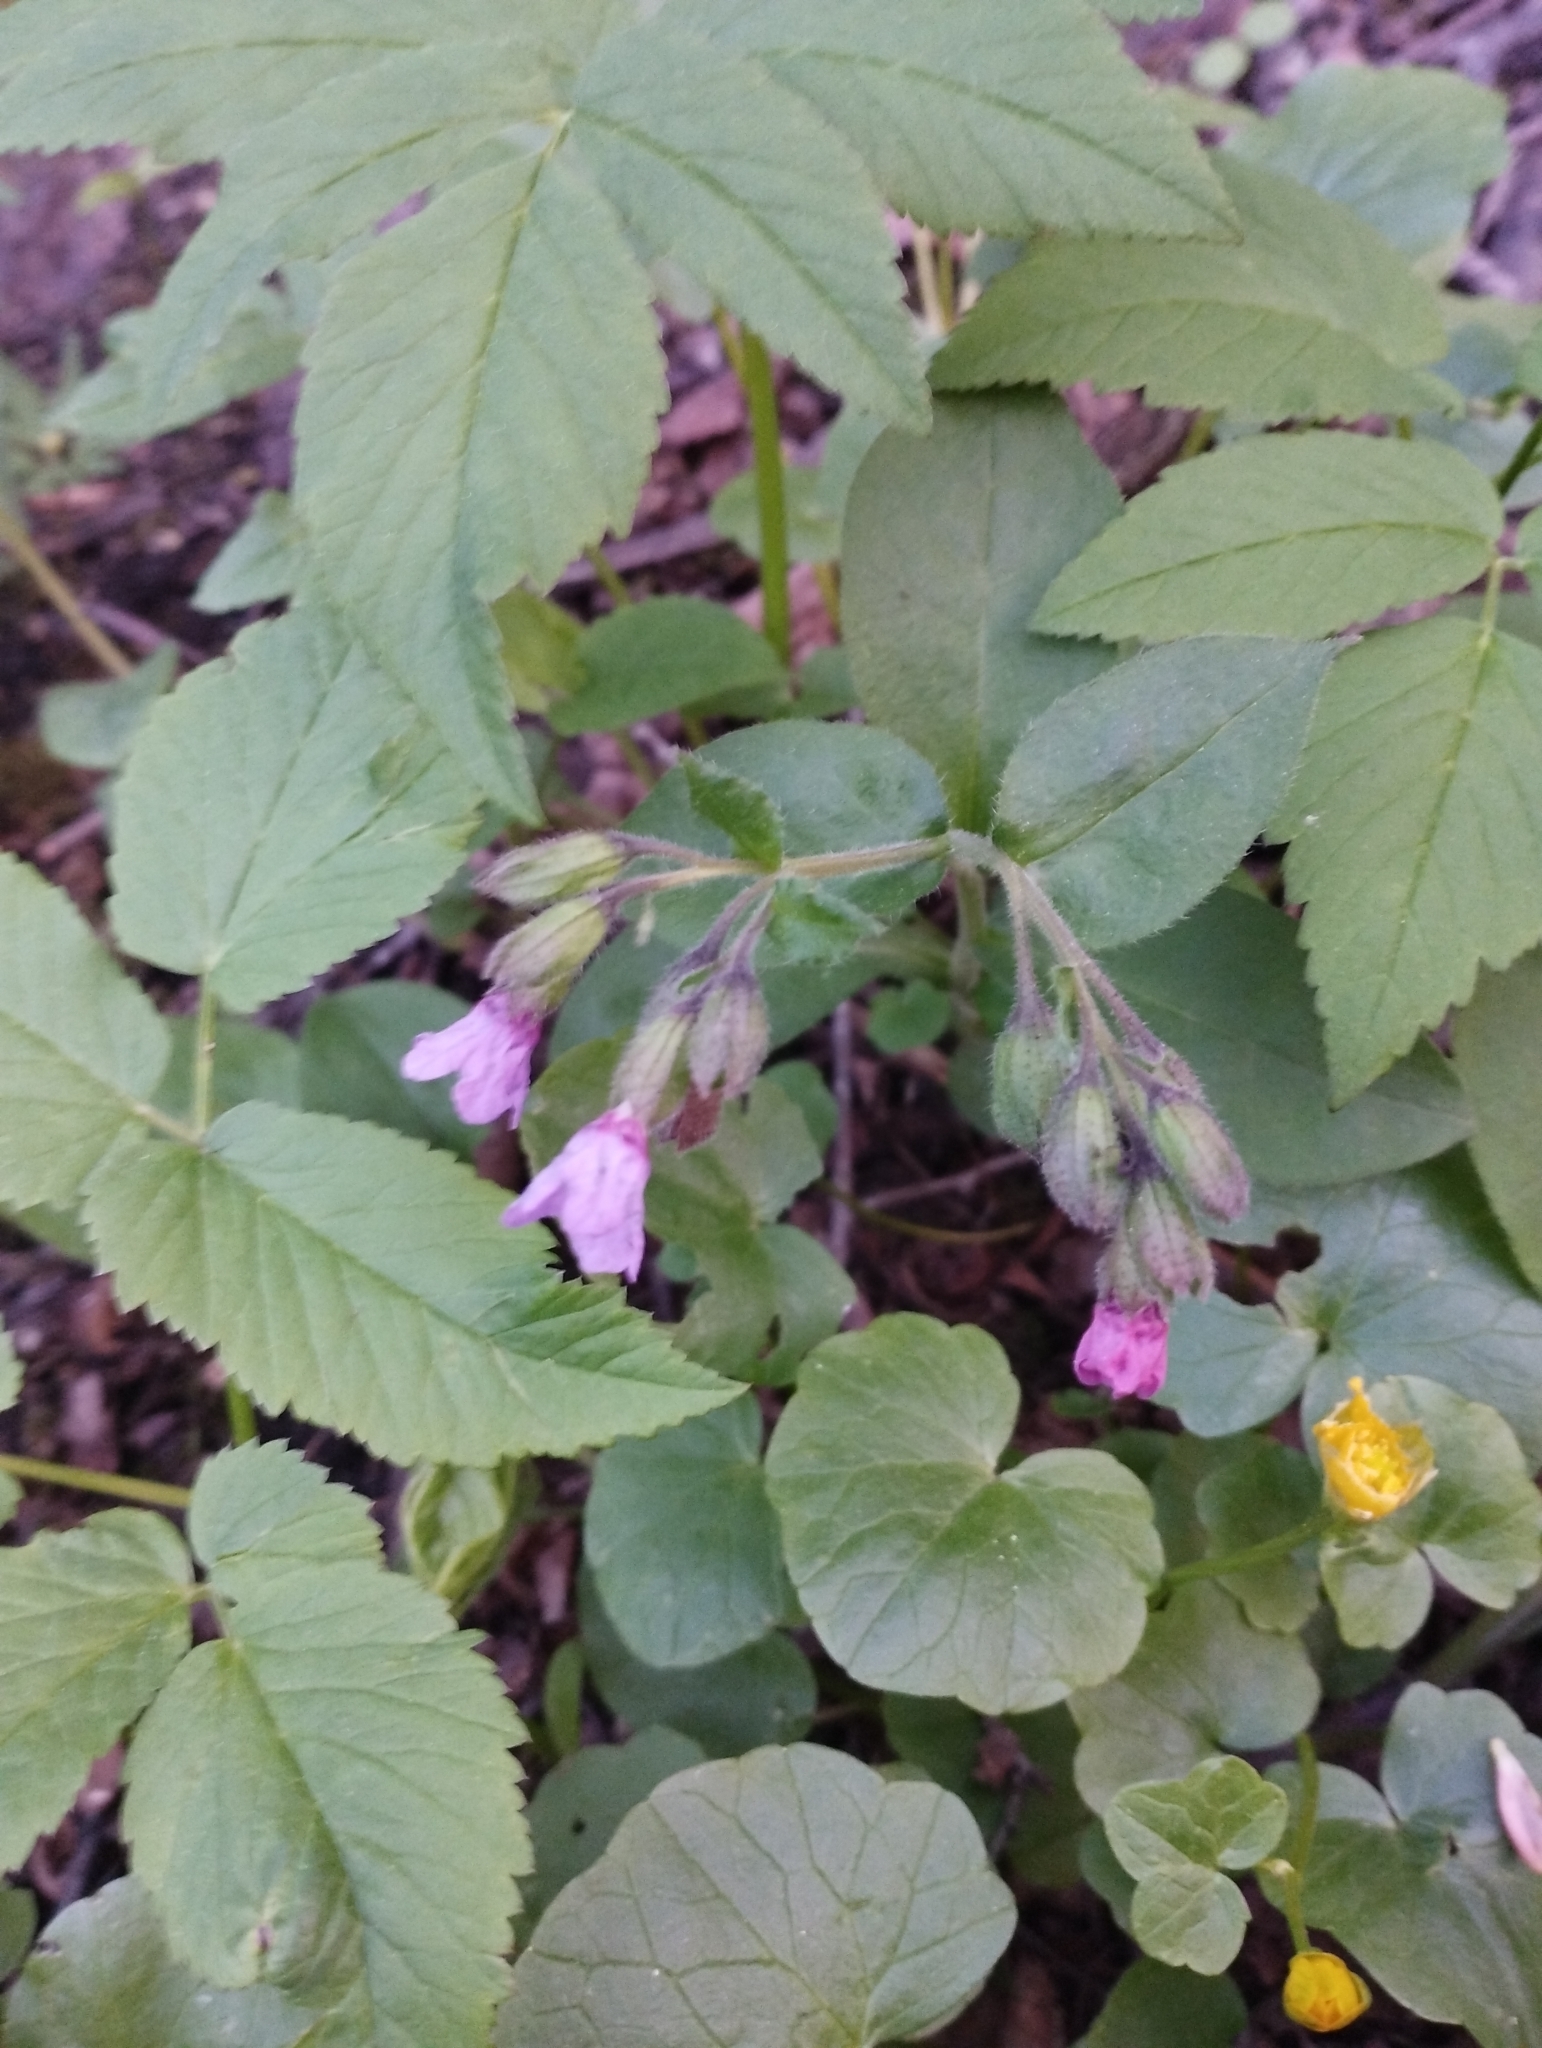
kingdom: Plantae
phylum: Tracheophyta
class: Magnoliopsida
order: Boraginales
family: Boraginaceae
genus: Pulmonaria
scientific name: Pulmonaria obscura
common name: Suffolk lungwort
